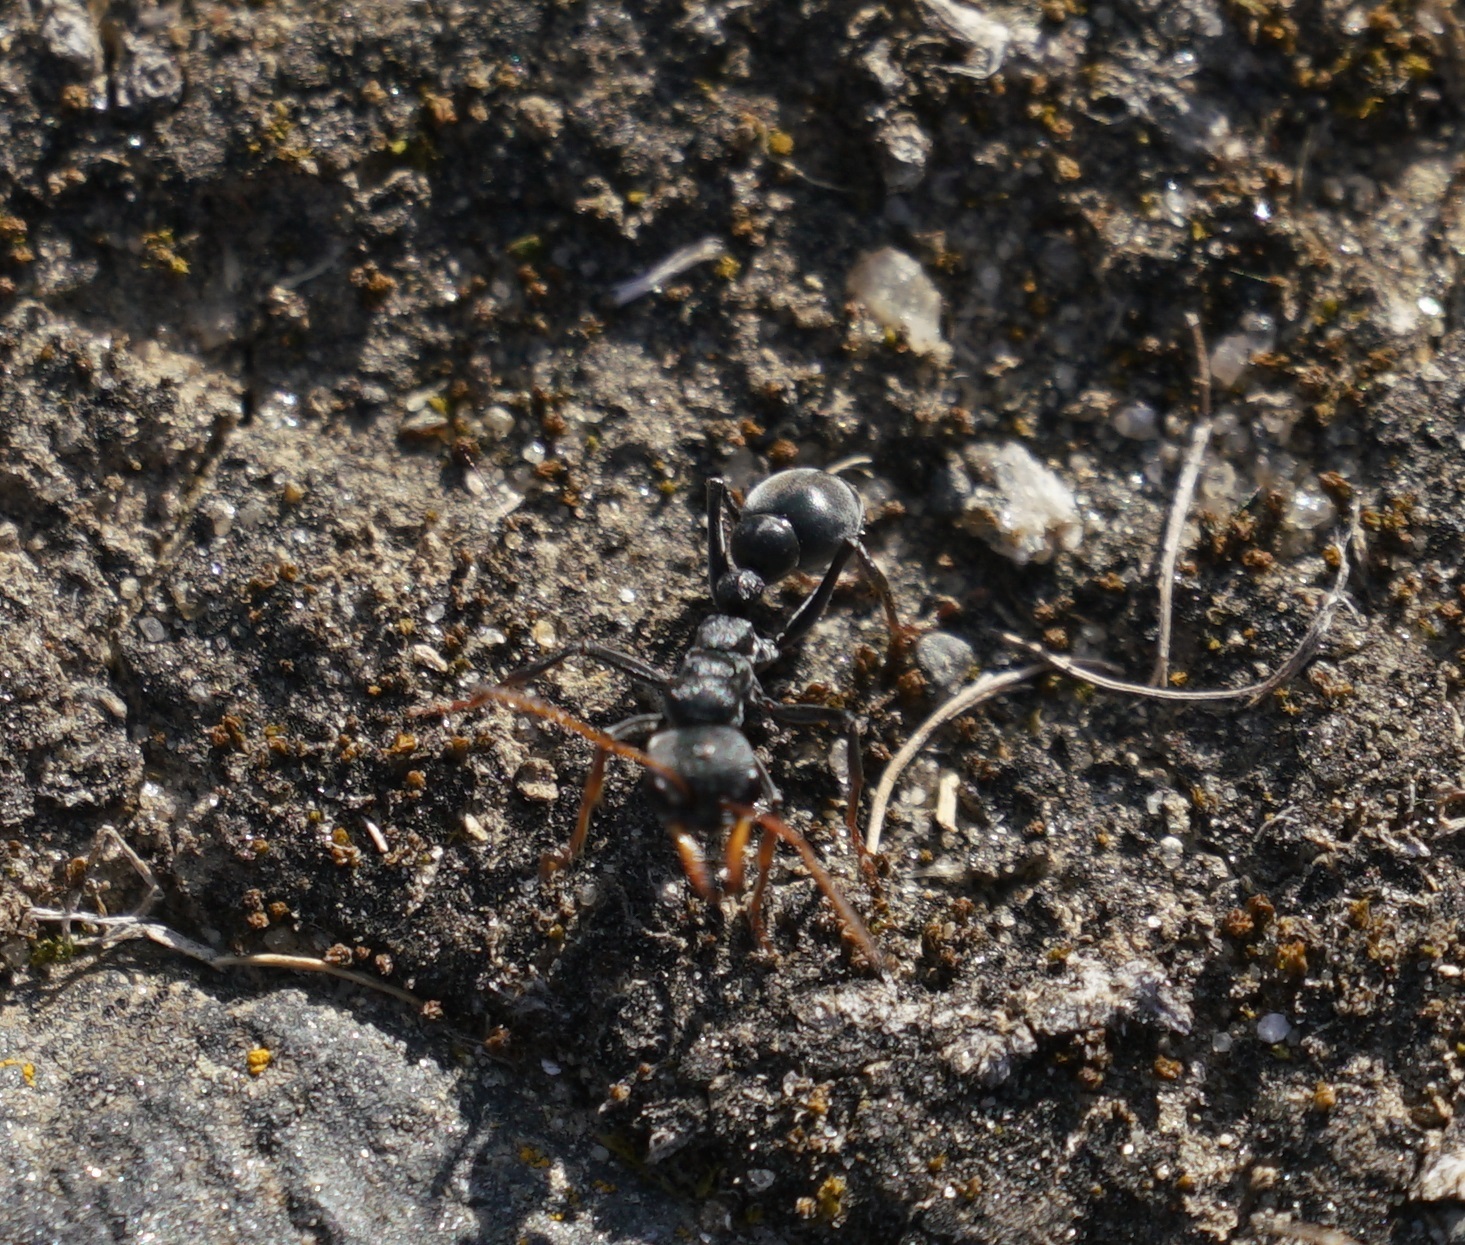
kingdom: Animalia
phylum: Arthropoda
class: Insecta
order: Hymenoptera
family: Formicidae
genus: Myrmecia
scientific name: Myrmecia haskinsorum
